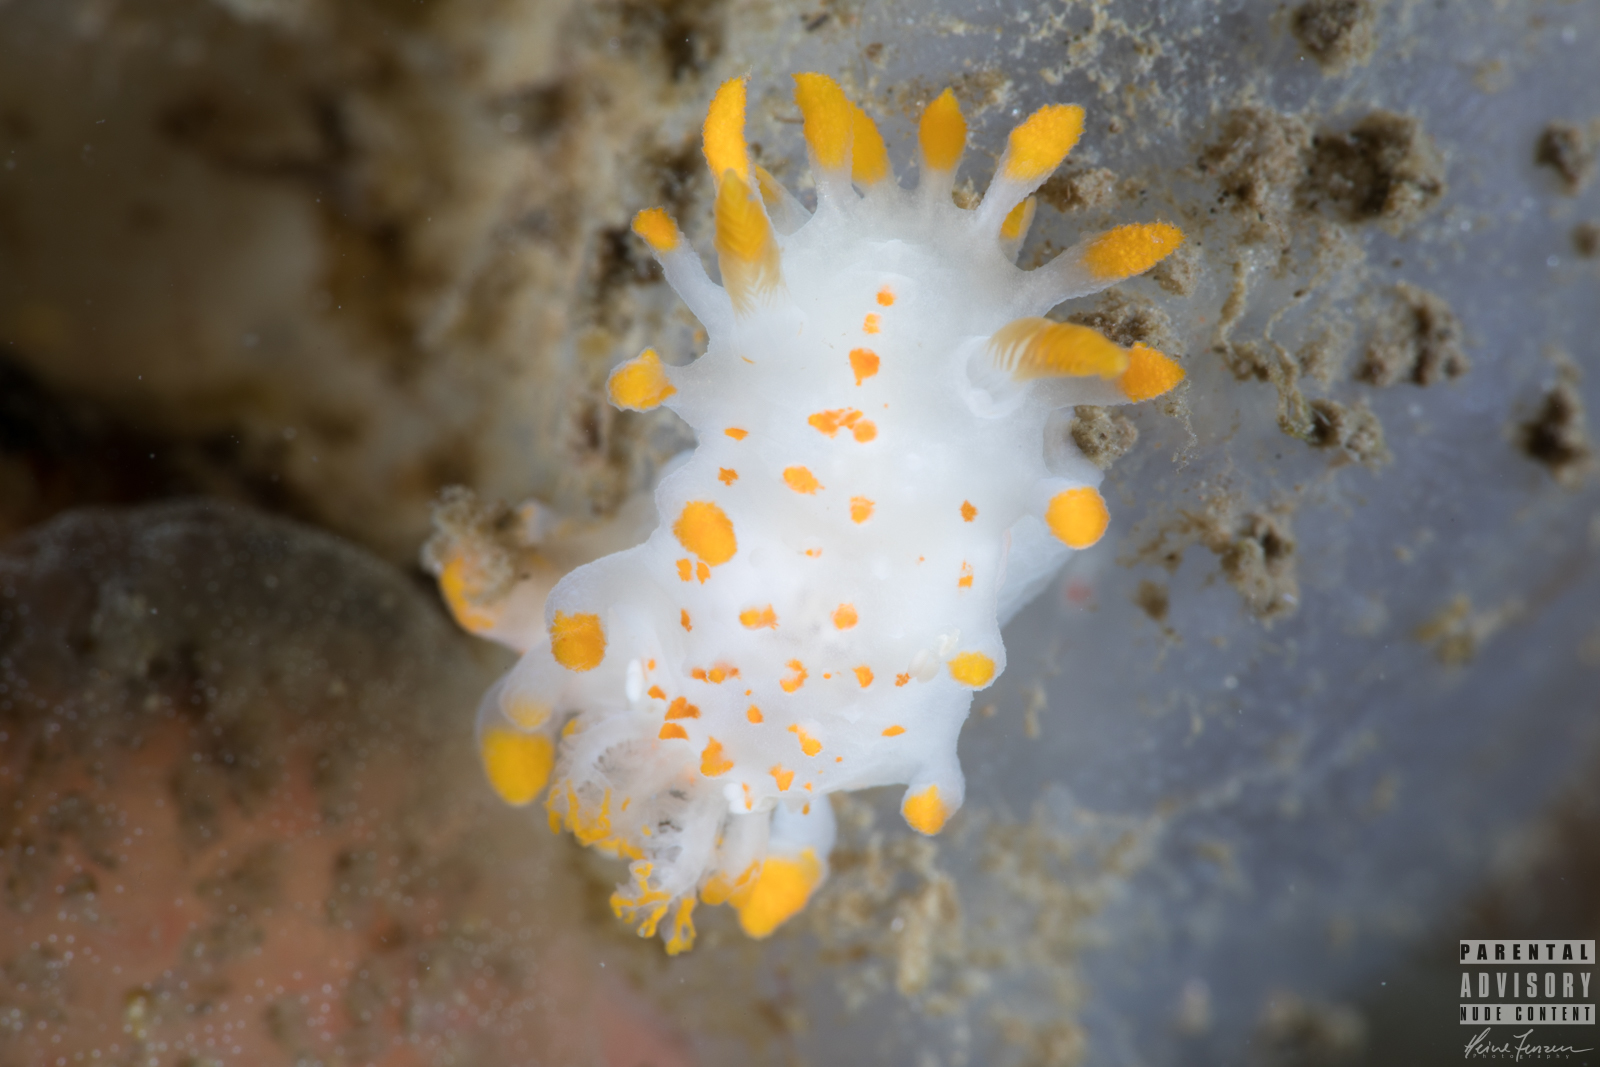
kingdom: Animalia
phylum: Mollusca
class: Gastropoda
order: Nudibranchia
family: Polyceridae
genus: Limacia
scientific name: Limacia clavigera
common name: Orange-clubbed sea slug
